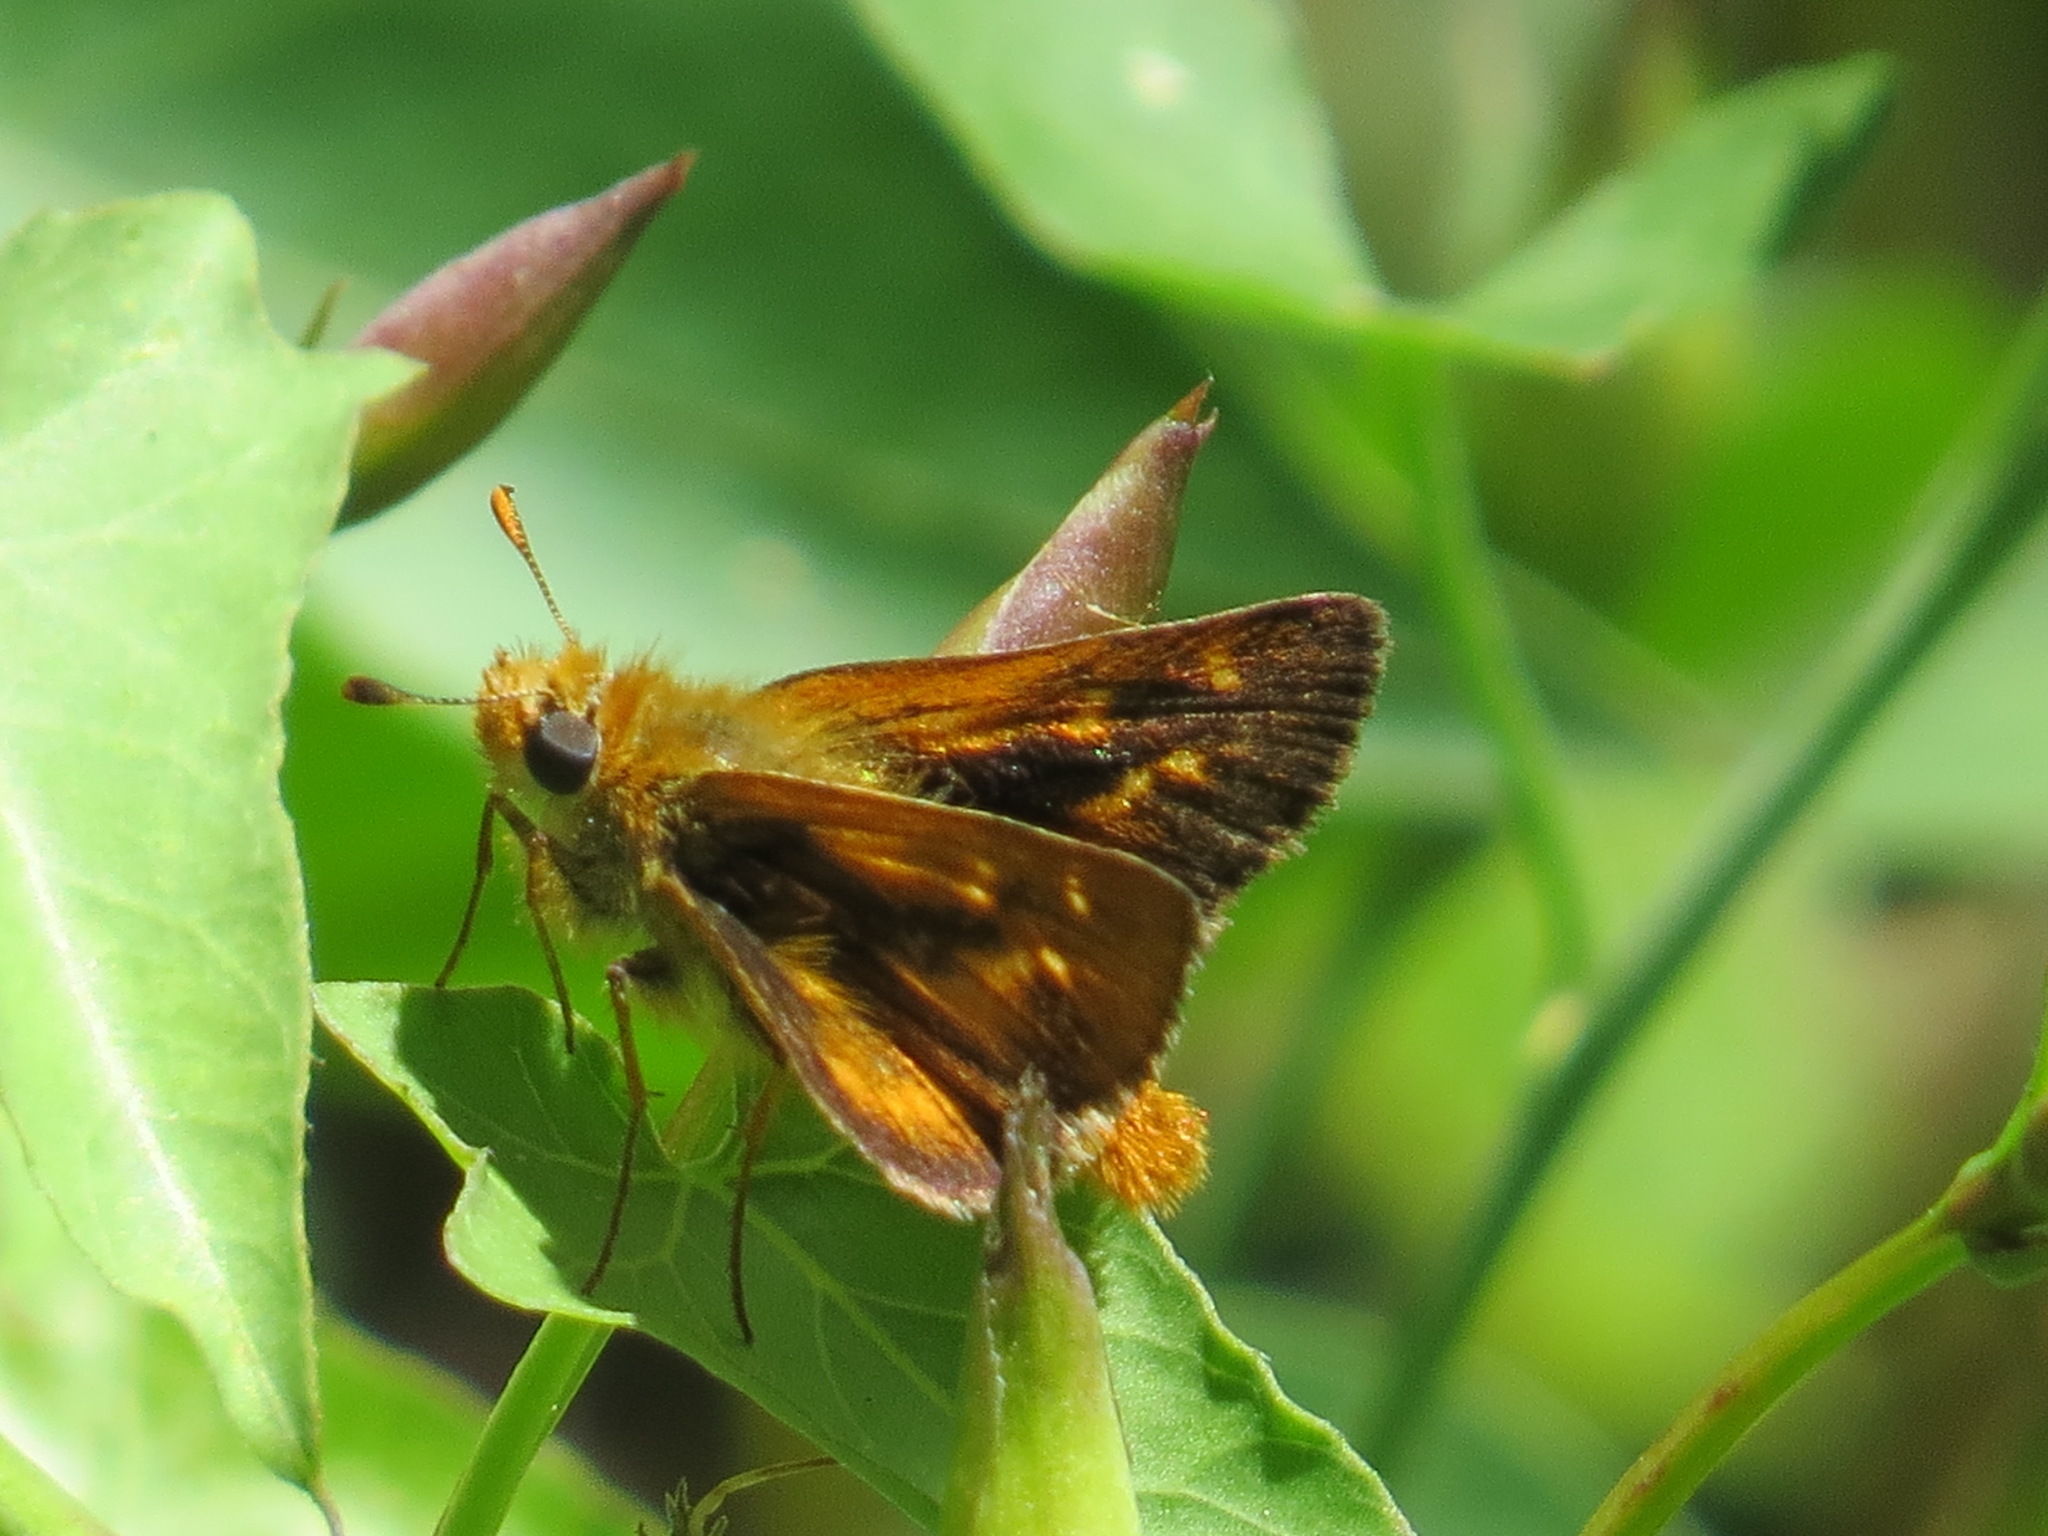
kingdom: Animalia
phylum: Arthropoda
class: Insecta
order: Lepidoptera
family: Hesperiidae
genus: Ochlodes
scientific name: Ochlodes agricola
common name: Rural skipper
